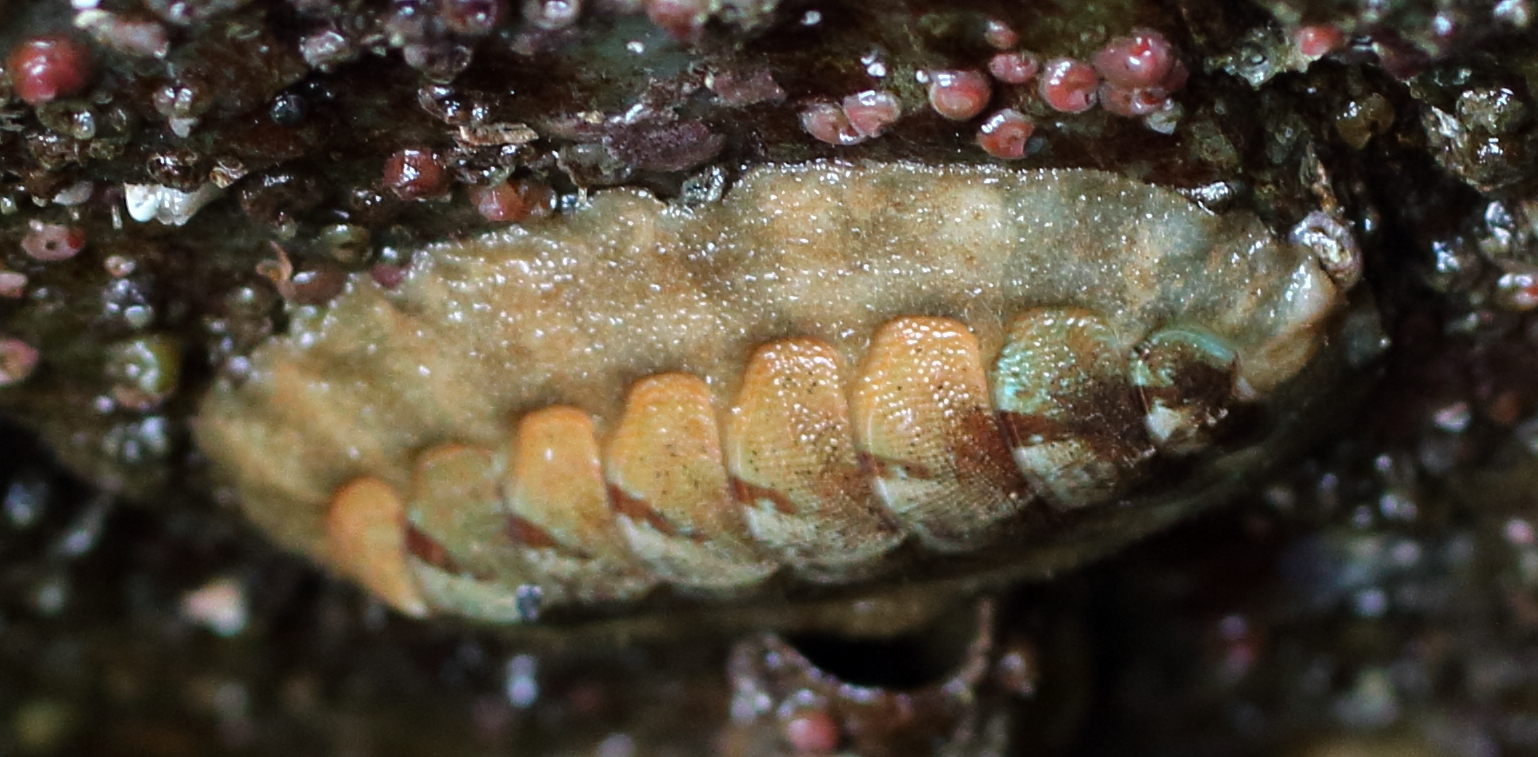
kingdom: Animalia
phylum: Mollusca
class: Polyplacophora
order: Chitonida
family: Mopaliidae
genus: Mopalia
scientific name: Mopalia swanii
